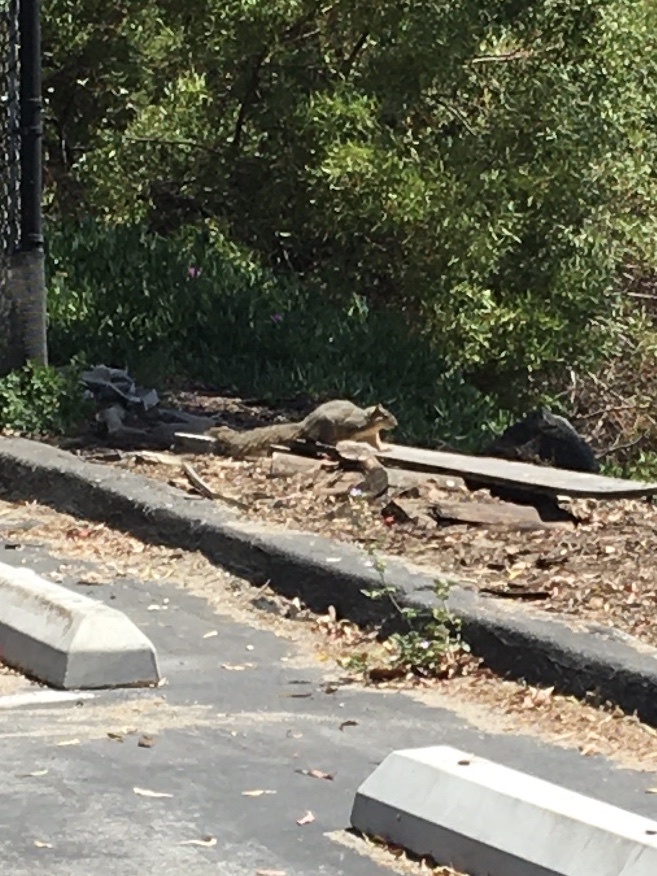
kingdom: Animalia
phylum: Chordata
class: Mammalia
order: Rodentia
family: Sciuridae
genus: Sciurus
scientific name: Sciurus niger
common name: Fox squirrel
